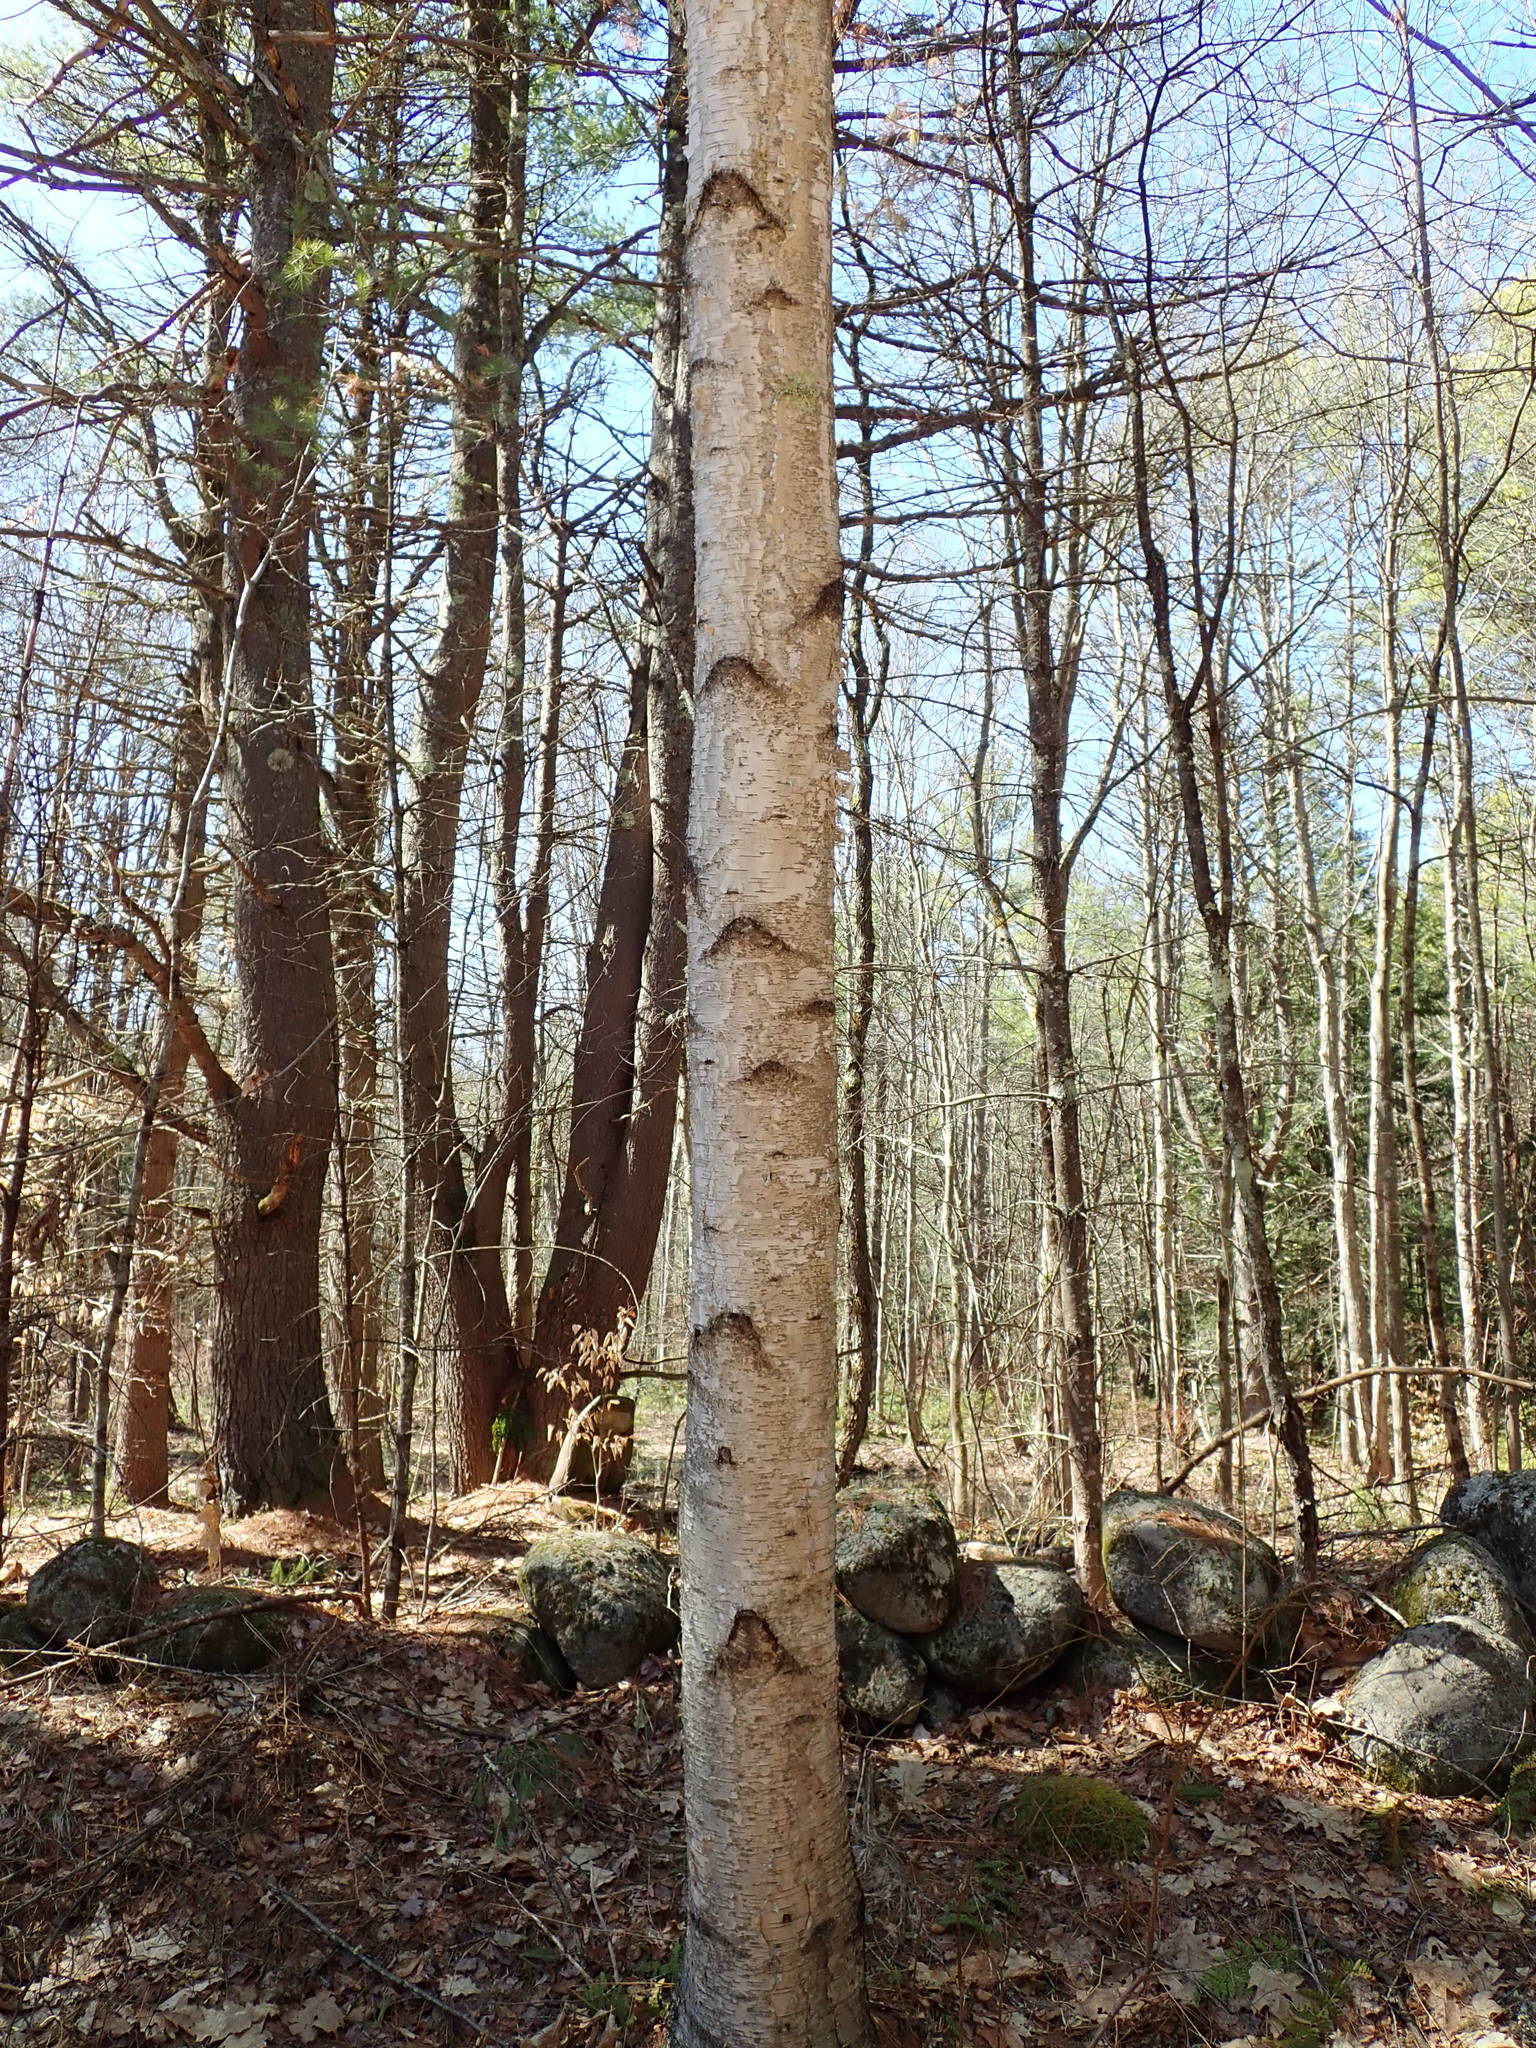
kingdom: Plantae
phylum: Tracheophyta
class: Magnoliopsida
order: Fagales
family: Betulaceae
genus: Betula
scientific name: Betula papyrifera
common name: Paper birch
